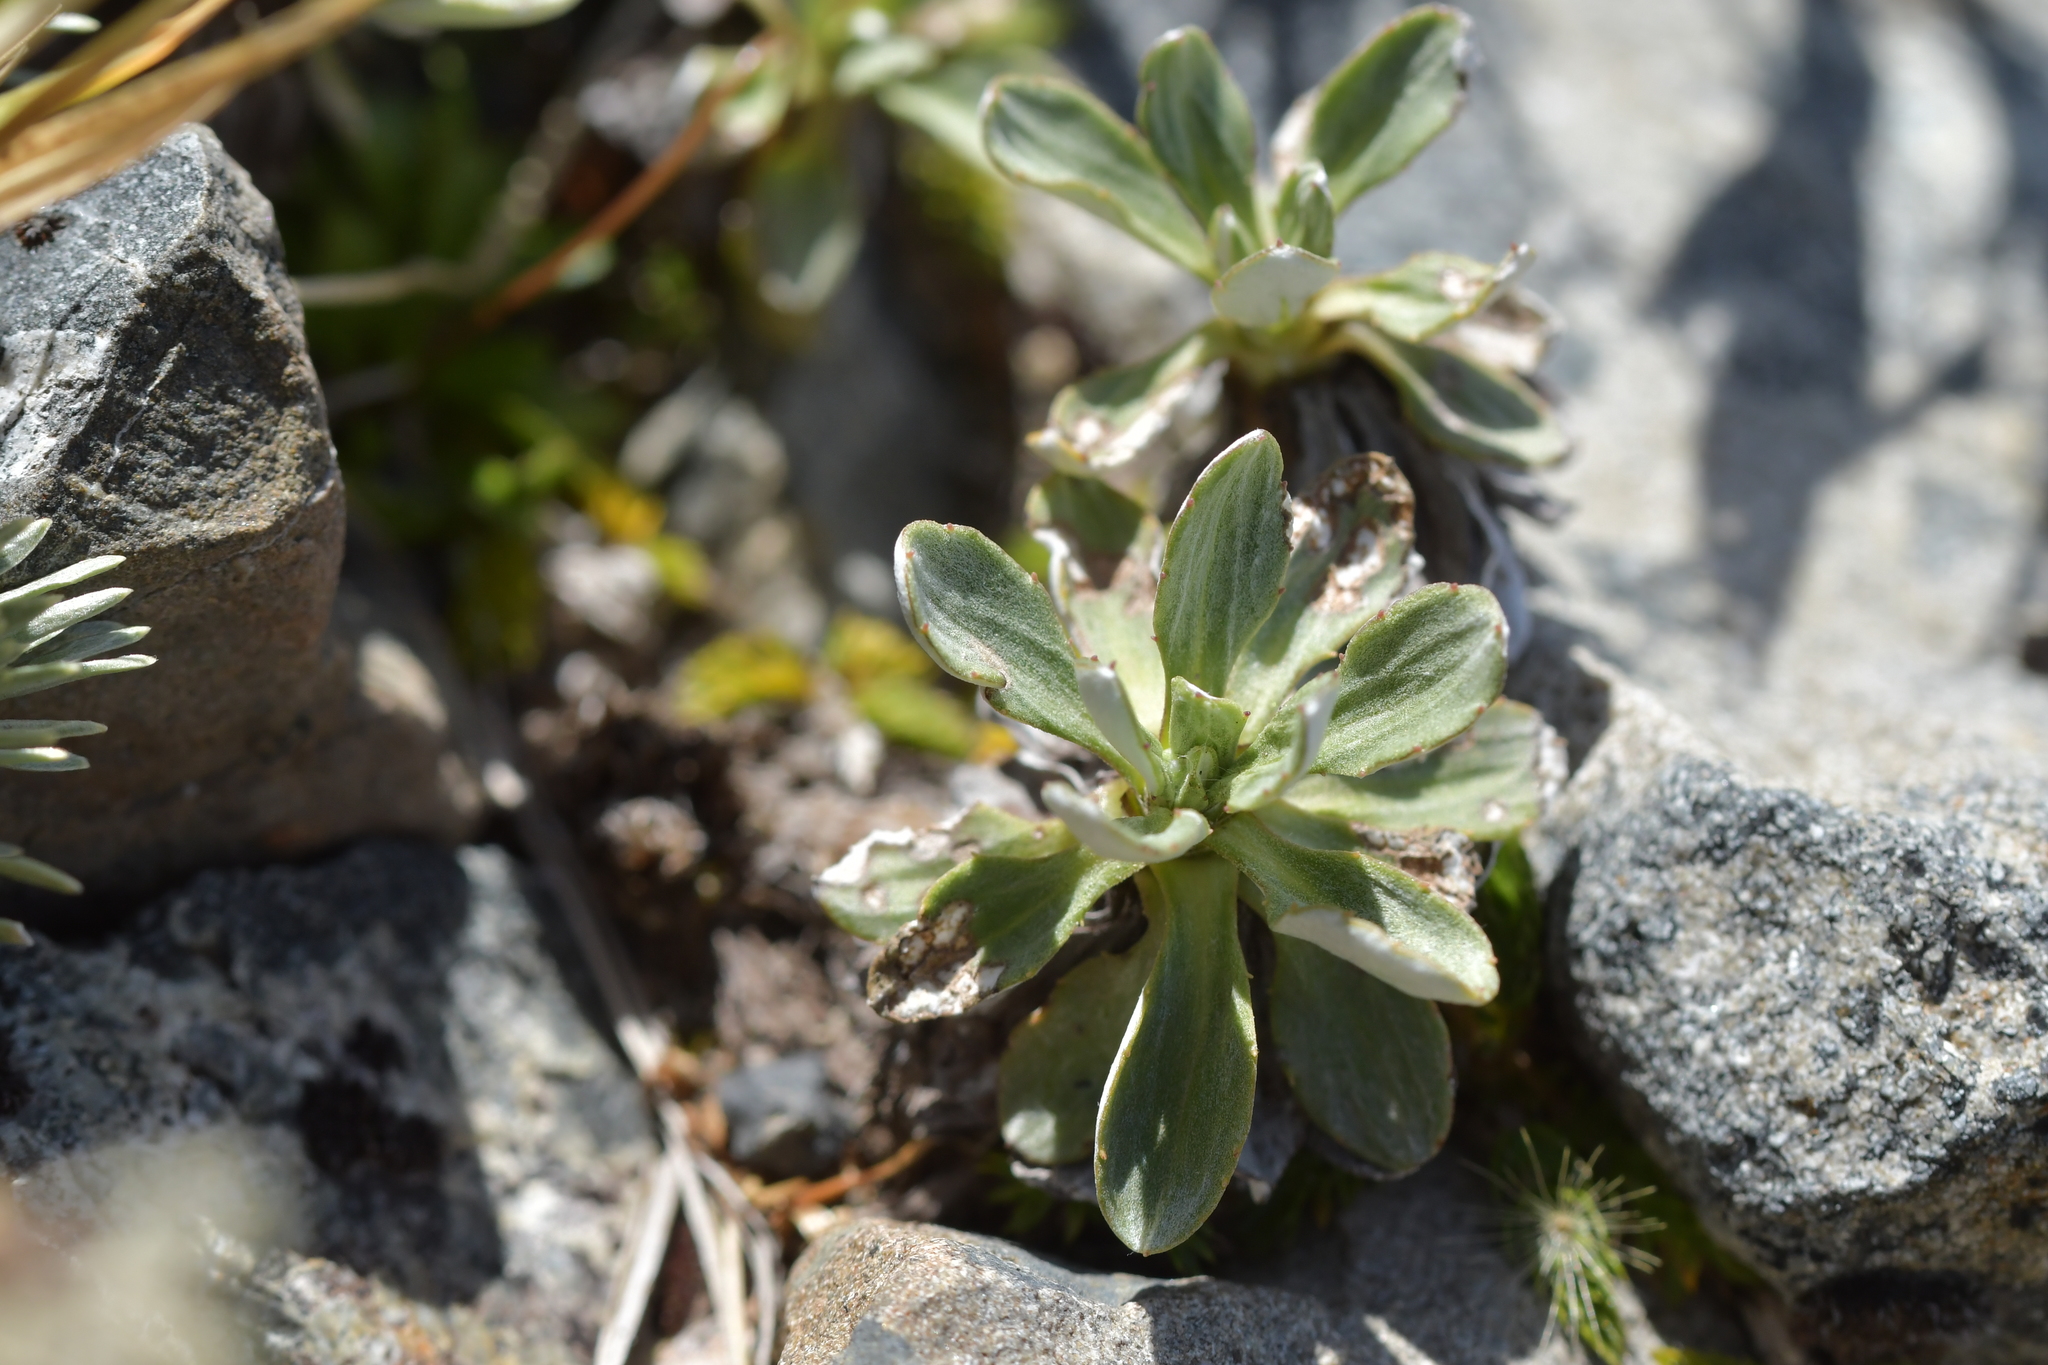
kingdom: Plantae
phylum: Tracheophyta
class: Magnoliopsida
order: Asterales
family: Asteraceae
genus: Celmisia
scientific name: Celmisia discolor
